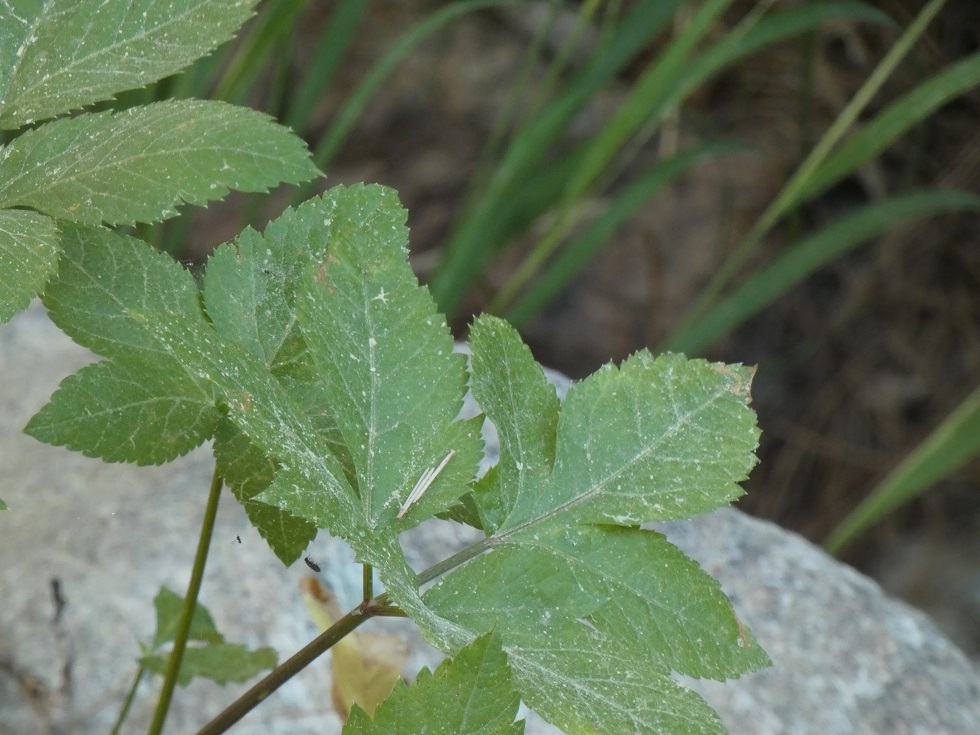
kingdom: Plantae
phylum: Tracheophyta
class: Magnoliopsida
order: Apiales
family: Apiaceae
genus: Aegopodium
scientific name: Aegopodium podagraria
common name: Ground-elder
